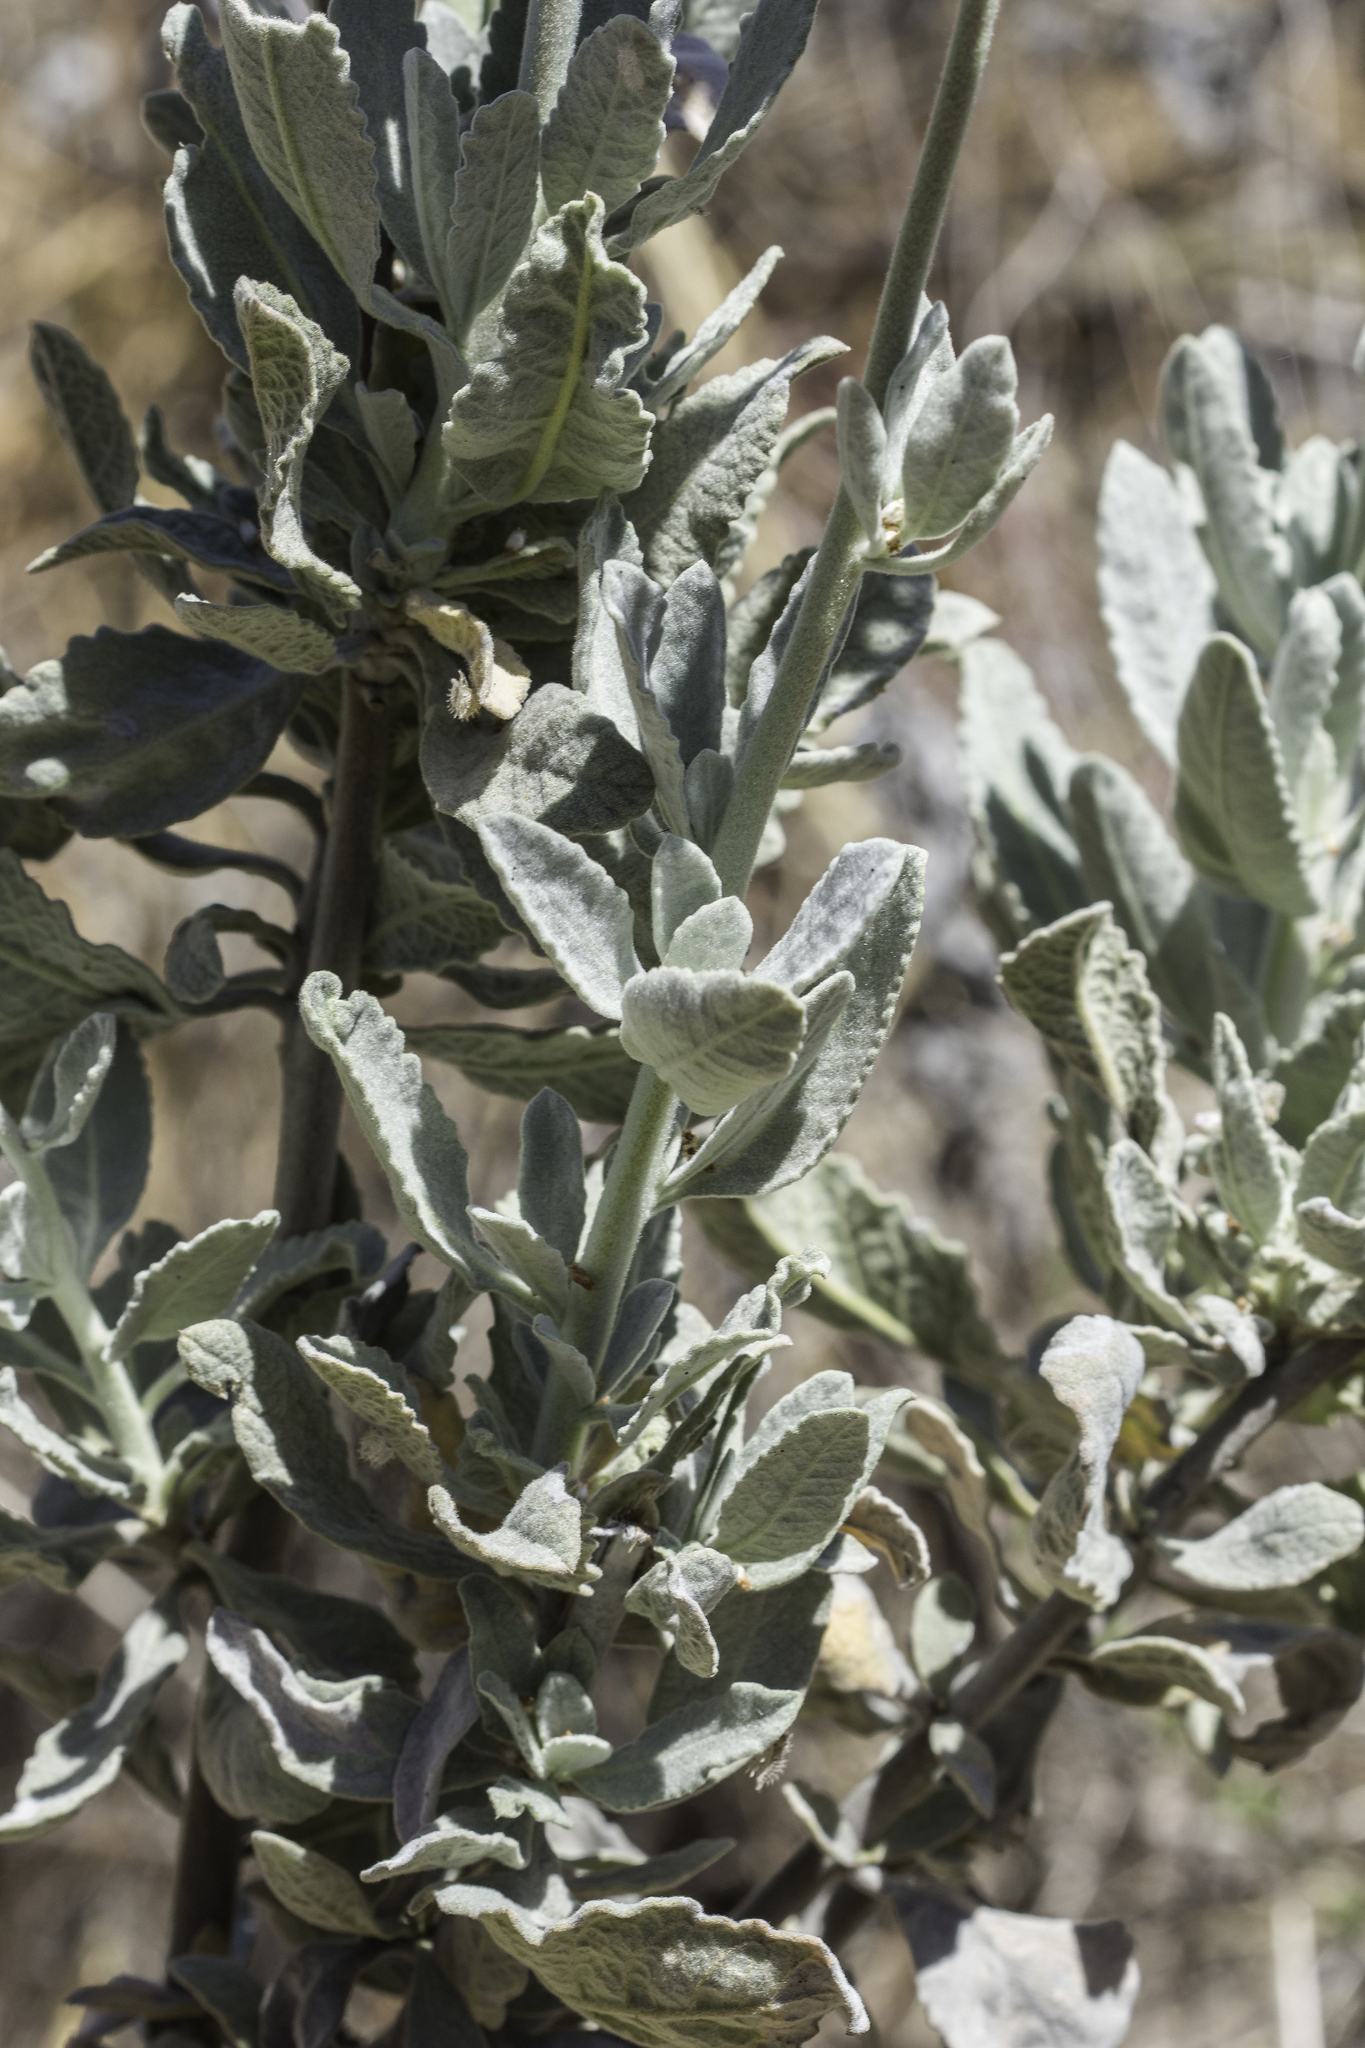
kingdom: Plantae
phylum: Tracheophyta
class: Magnoliopsida
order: Boraginales
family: Namaceae
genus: Eriodictyon
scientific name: Eriodictyon tomentosum
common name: Woolly yerba-santa
